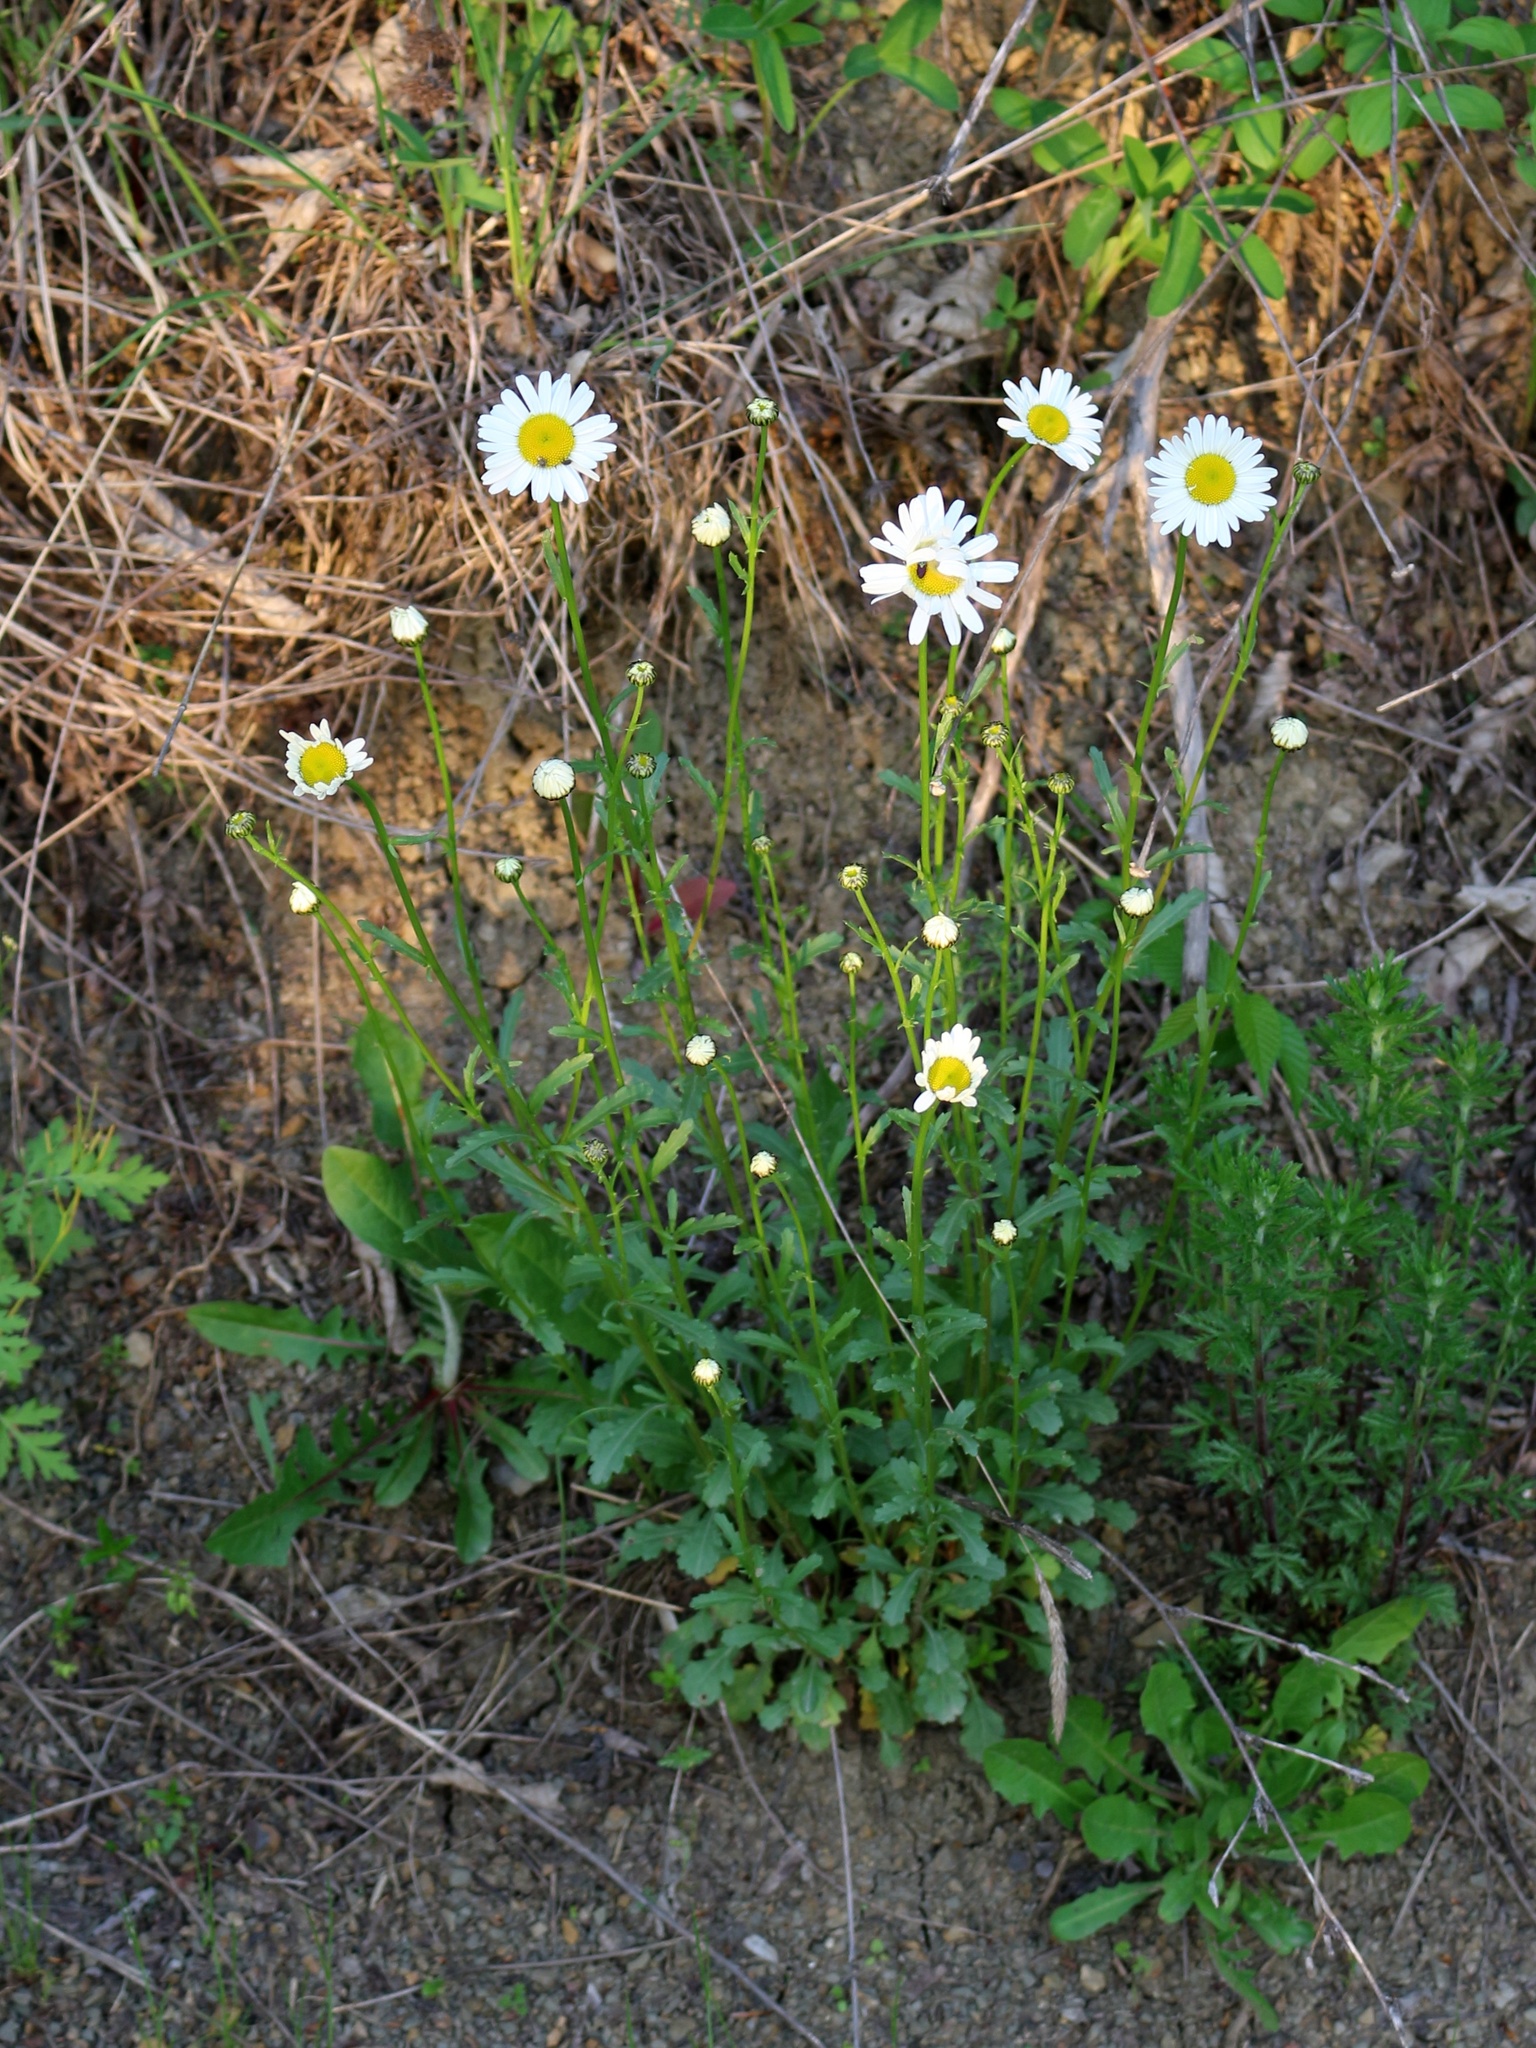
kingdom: Plantae
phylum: Tracheophyta
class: Magnoliopsida
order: Asterales
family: Asteraceae
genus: Leucanthemum
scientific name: Leucanthemum vulgare
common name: Oxeye daisy
